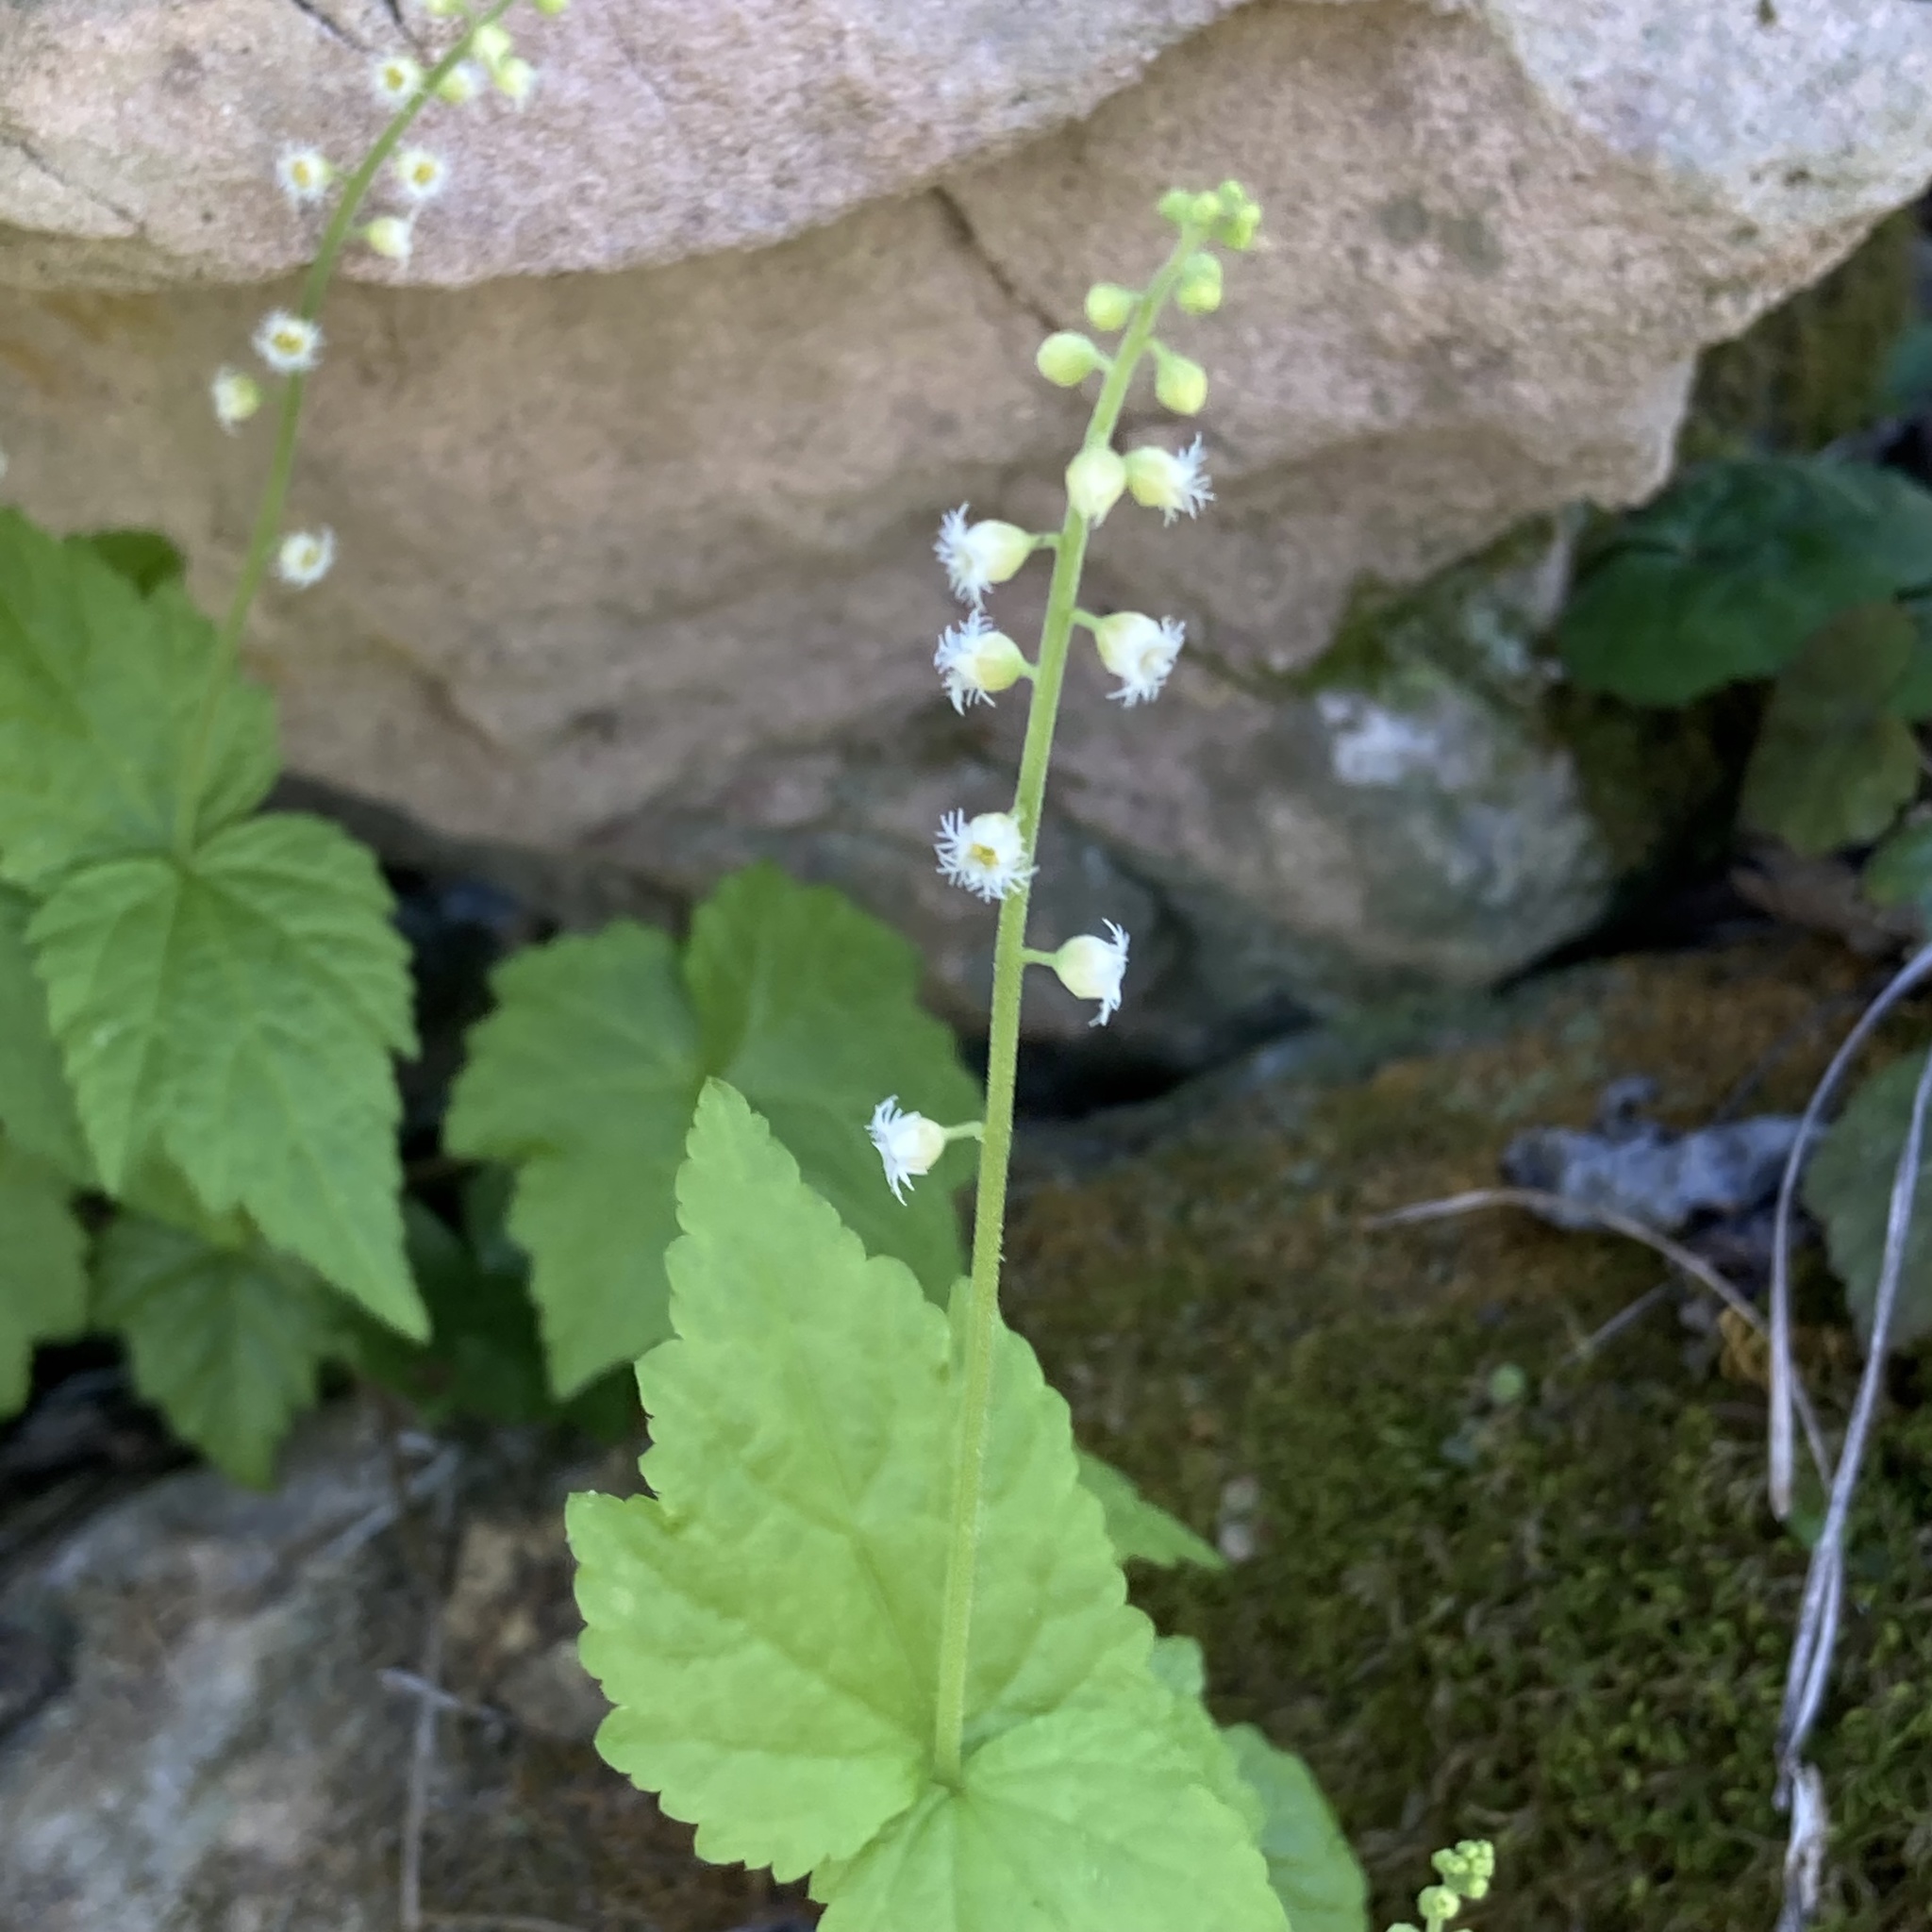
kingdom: Plantae
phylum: Tracheophyta
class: Magnoliopsida
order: Saxifragales
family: Saxifragaceae
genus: Mitella
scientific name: Mitella diphylla
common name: Coolwort
